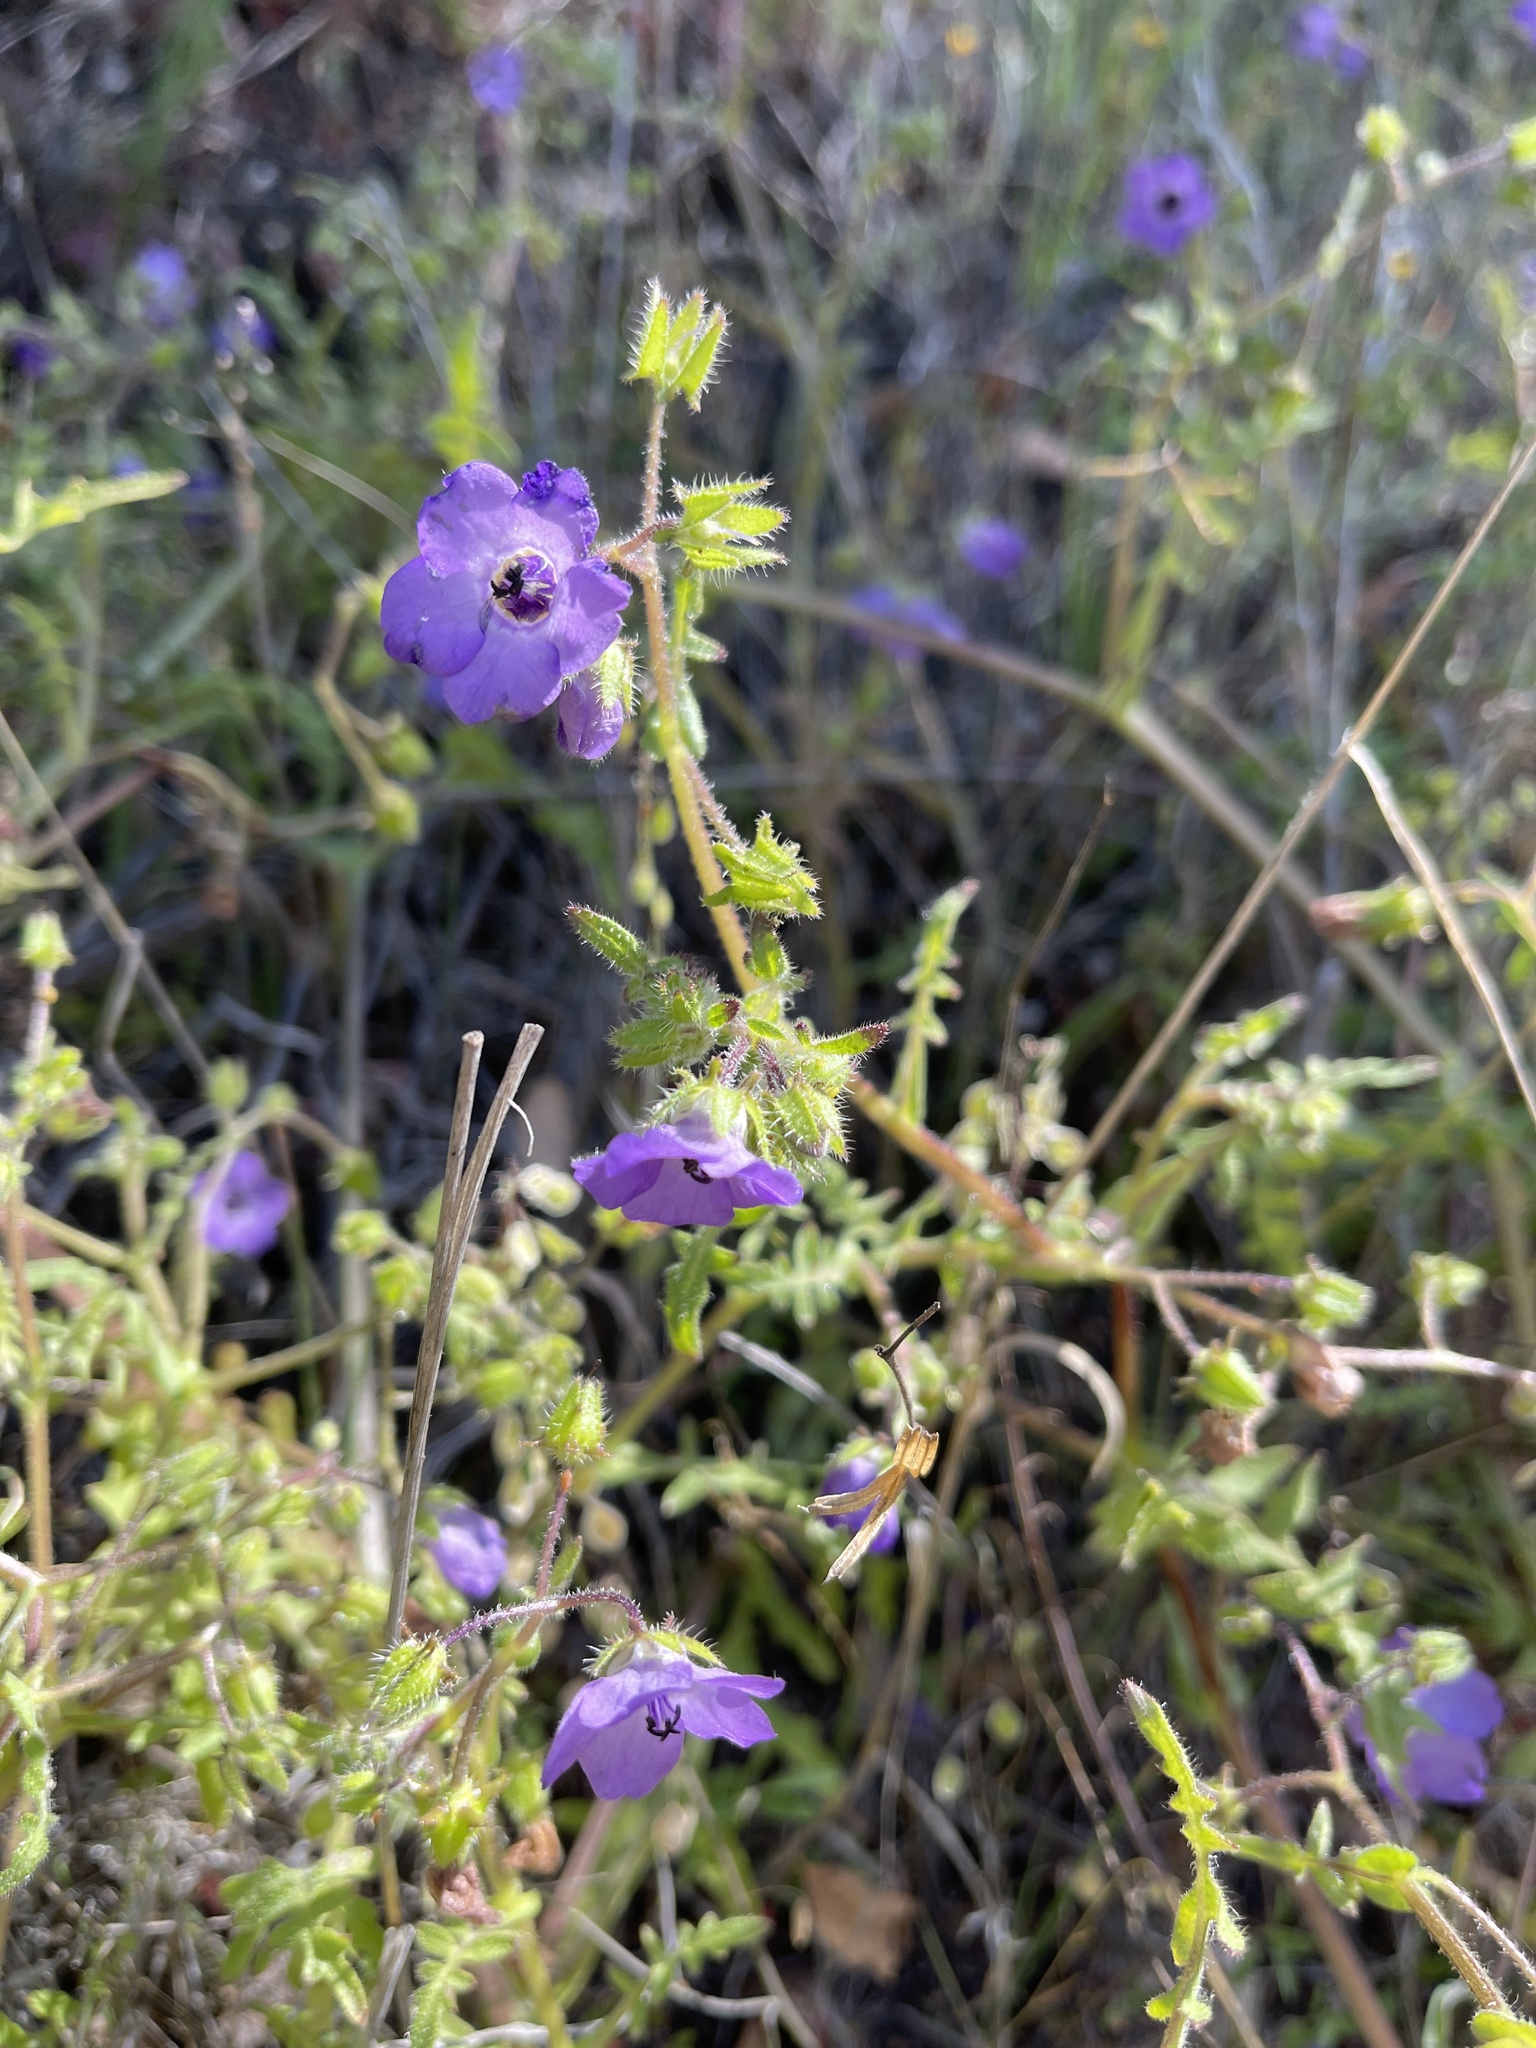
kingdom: Plantae
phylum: Tracheophyta
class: Magnoliopsida
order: Boraginales
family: Hydrophyllaceae
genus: Pholistoma
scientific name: Pholistoma auritum
